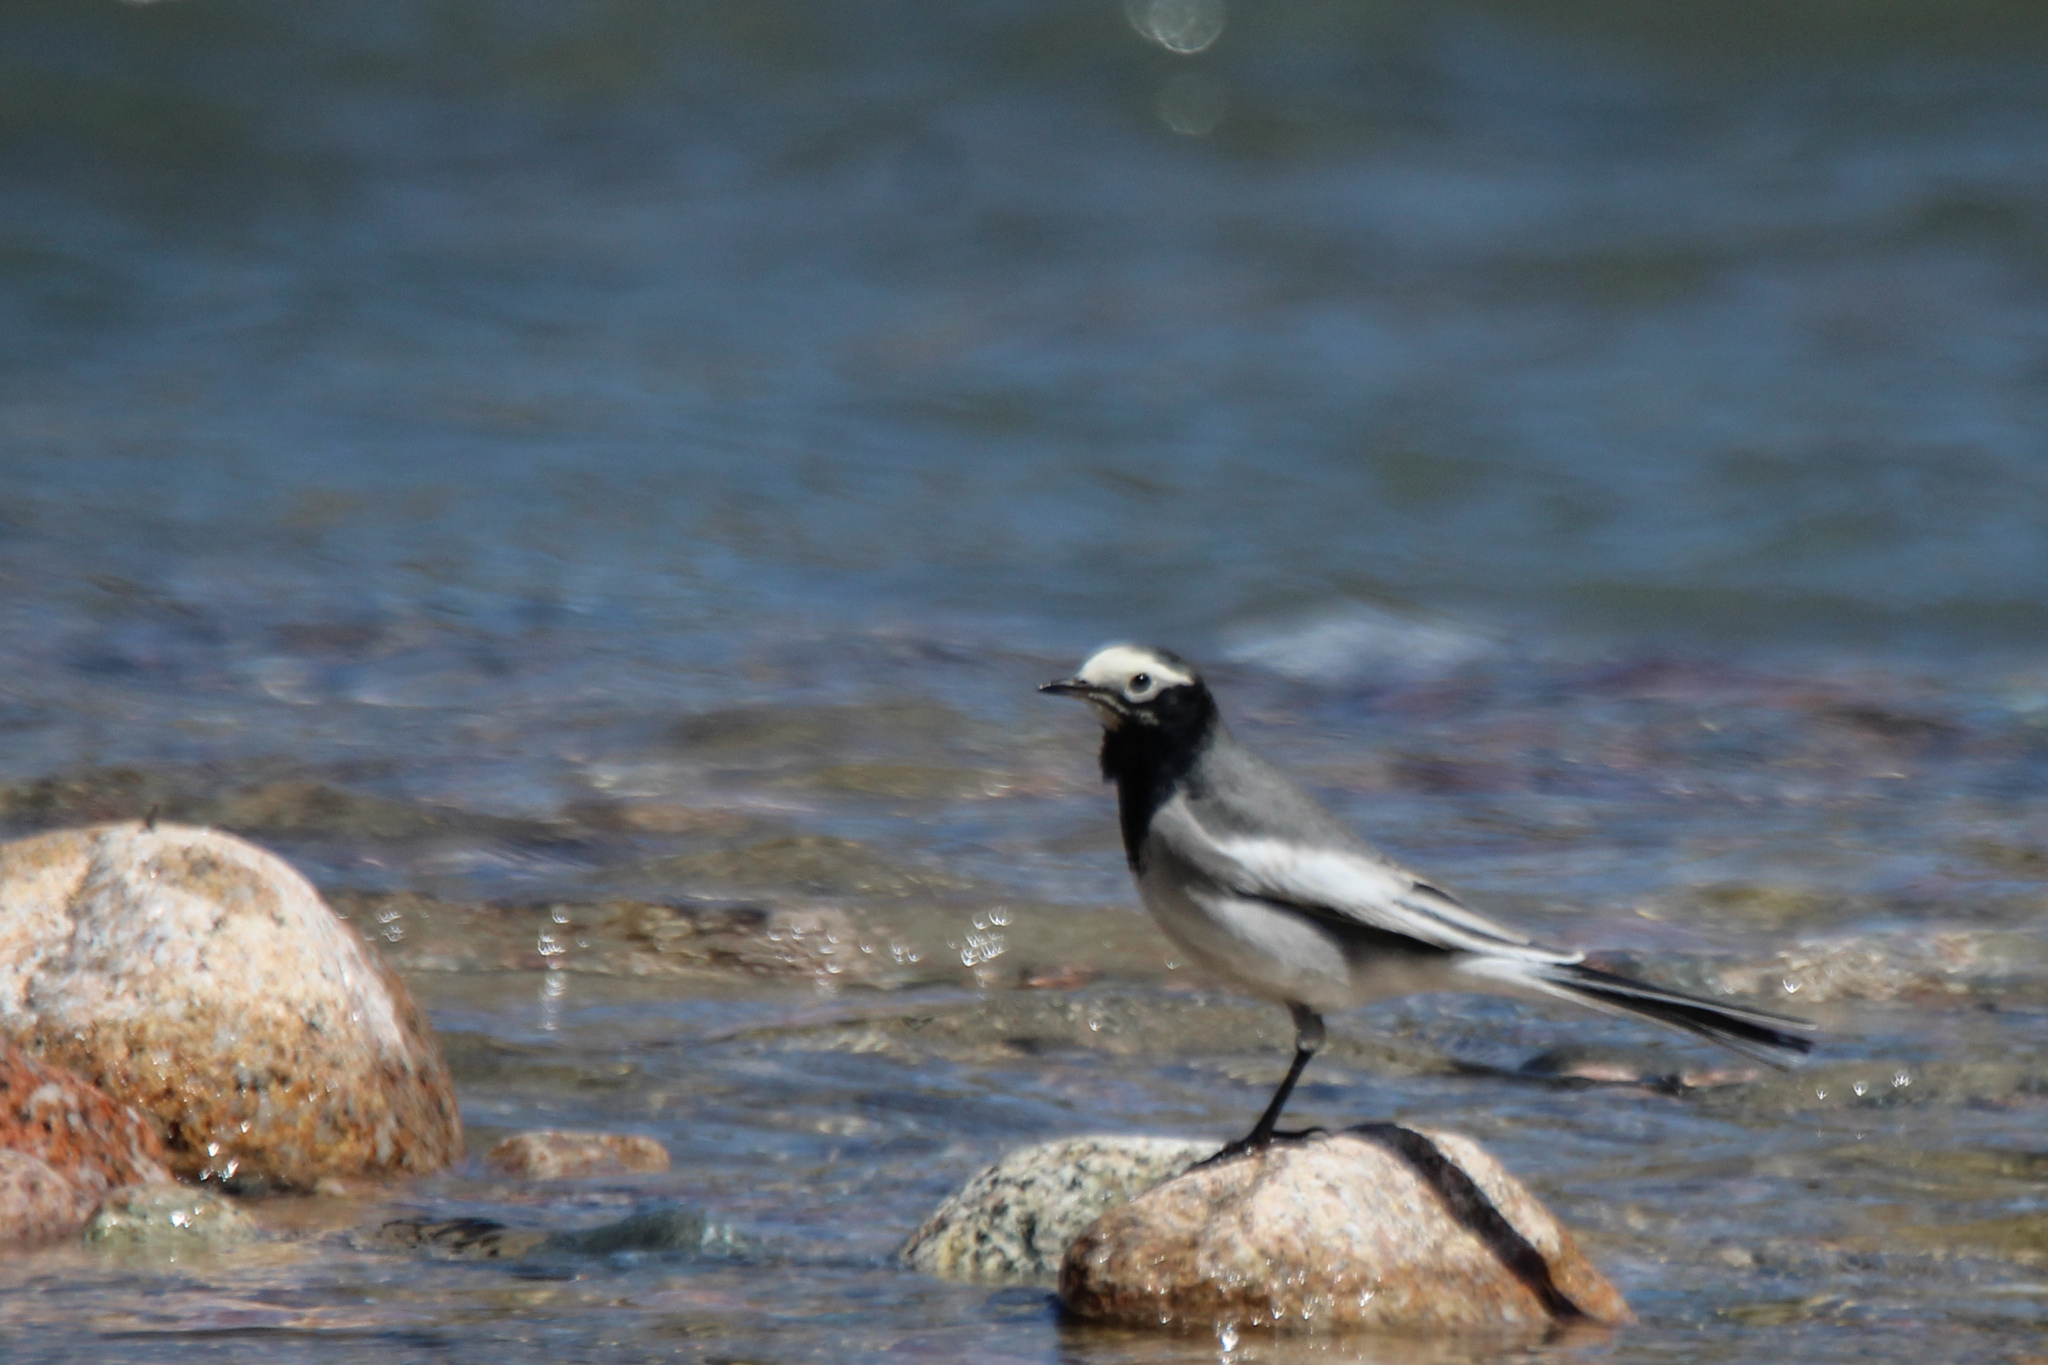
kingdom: Animalia
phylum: Chordata
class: Aves
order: Passeriformes
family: Motacillidae
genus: Motacilla
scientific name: Motacilla alba
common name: White wagtail
